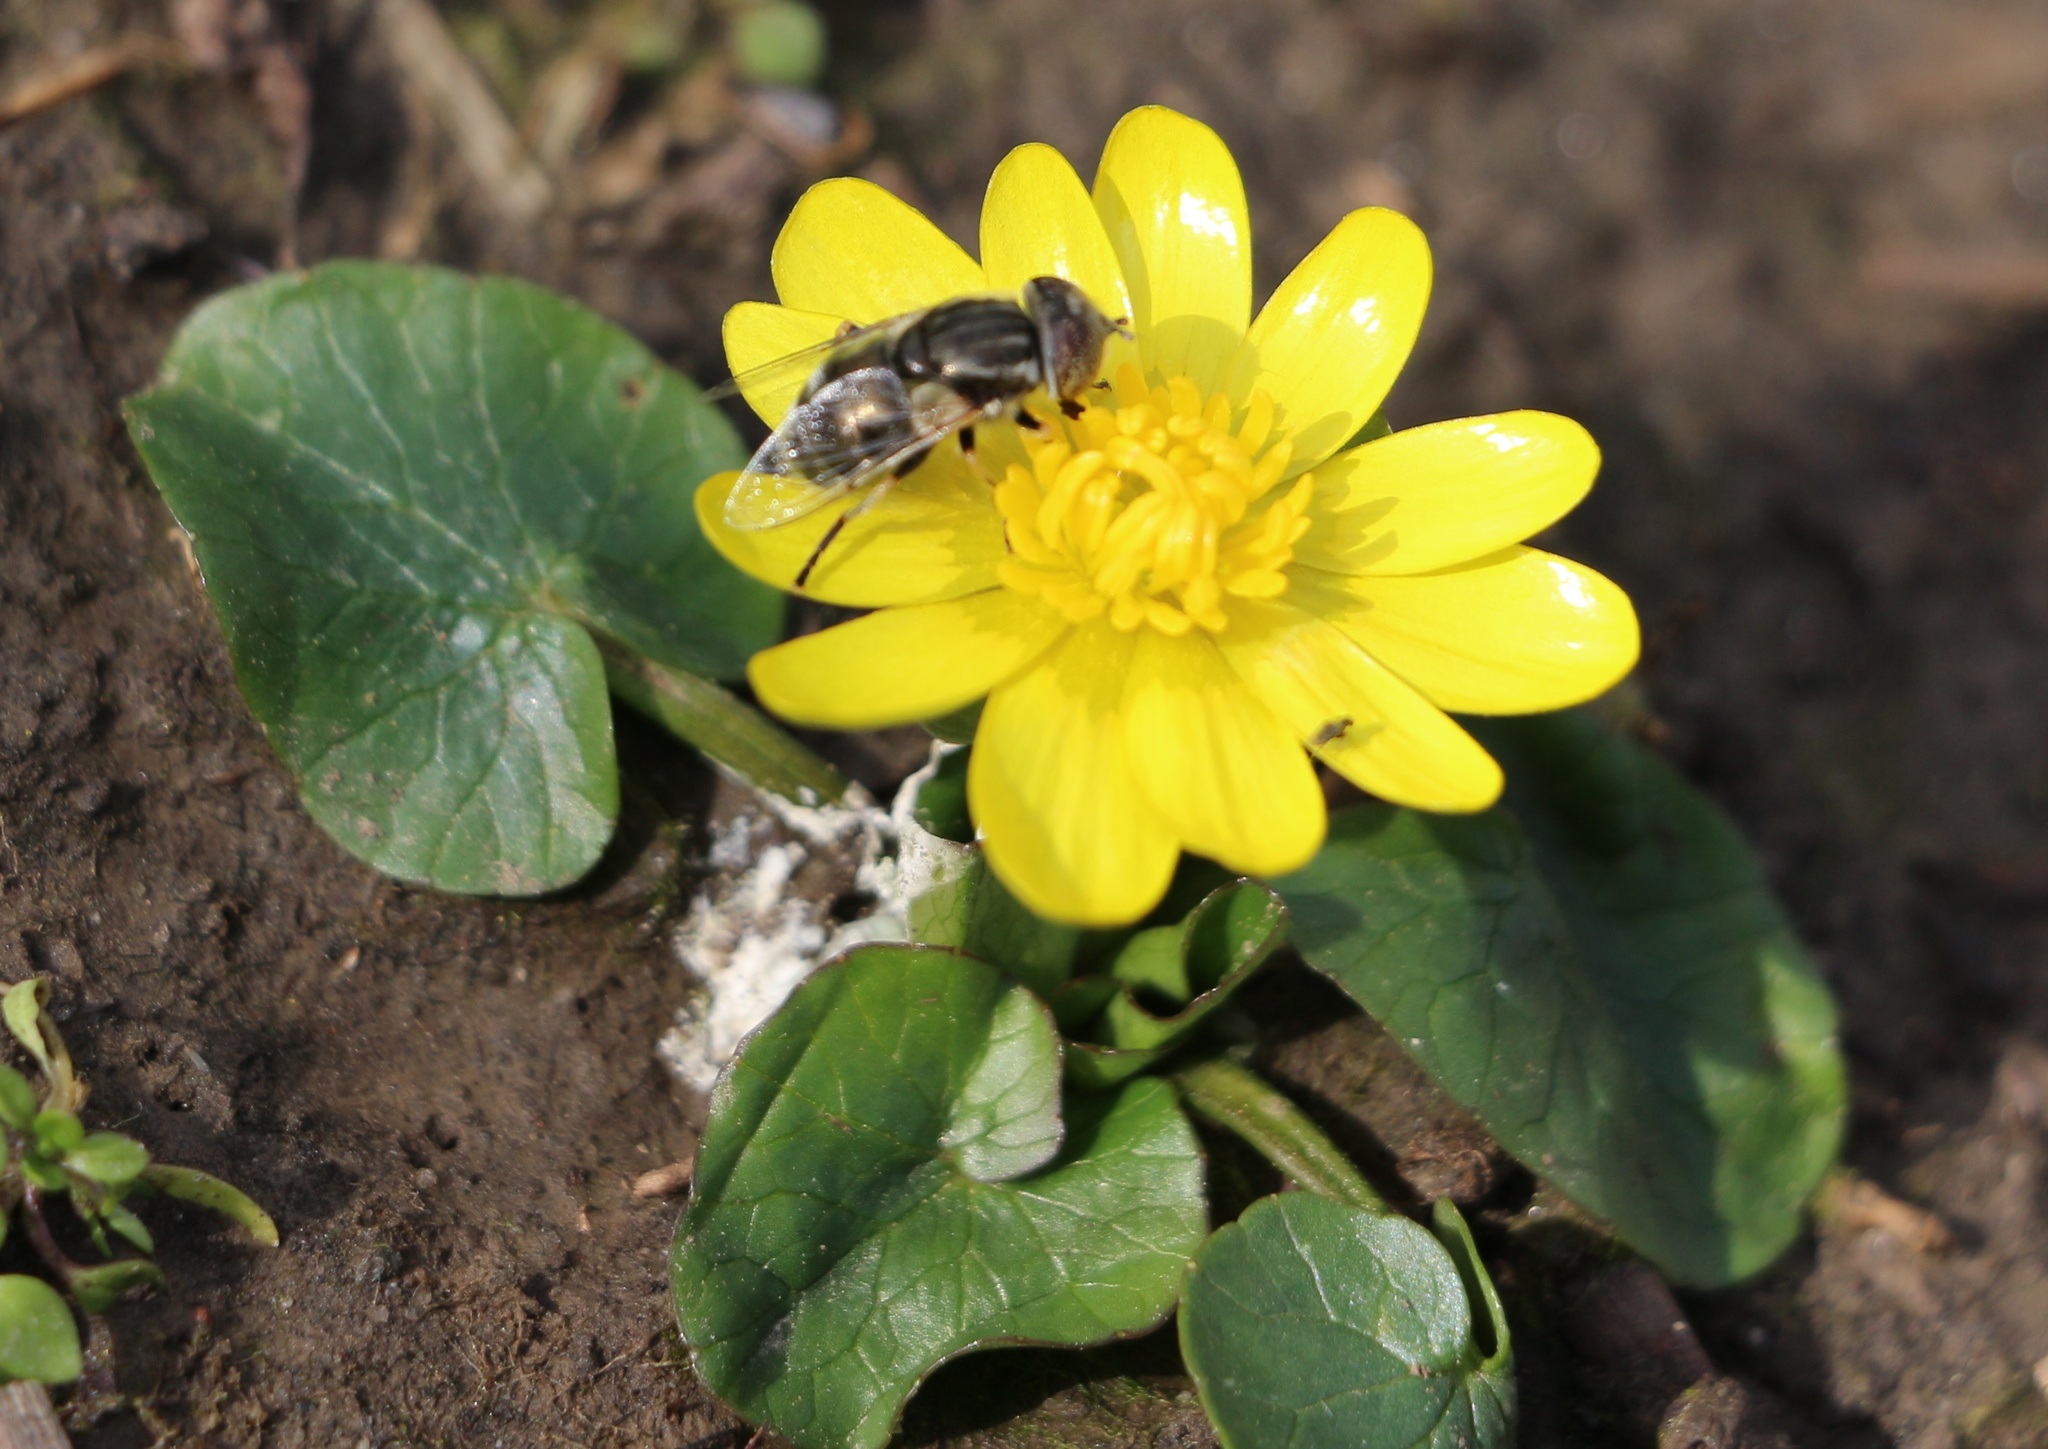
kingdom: Plantae
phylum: Tracheophyta
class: Magnoliopsida
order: Ranunculales
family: Ranunculaceae
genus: Ficaria
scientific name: Ficaria verna
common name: Lesser celandine
